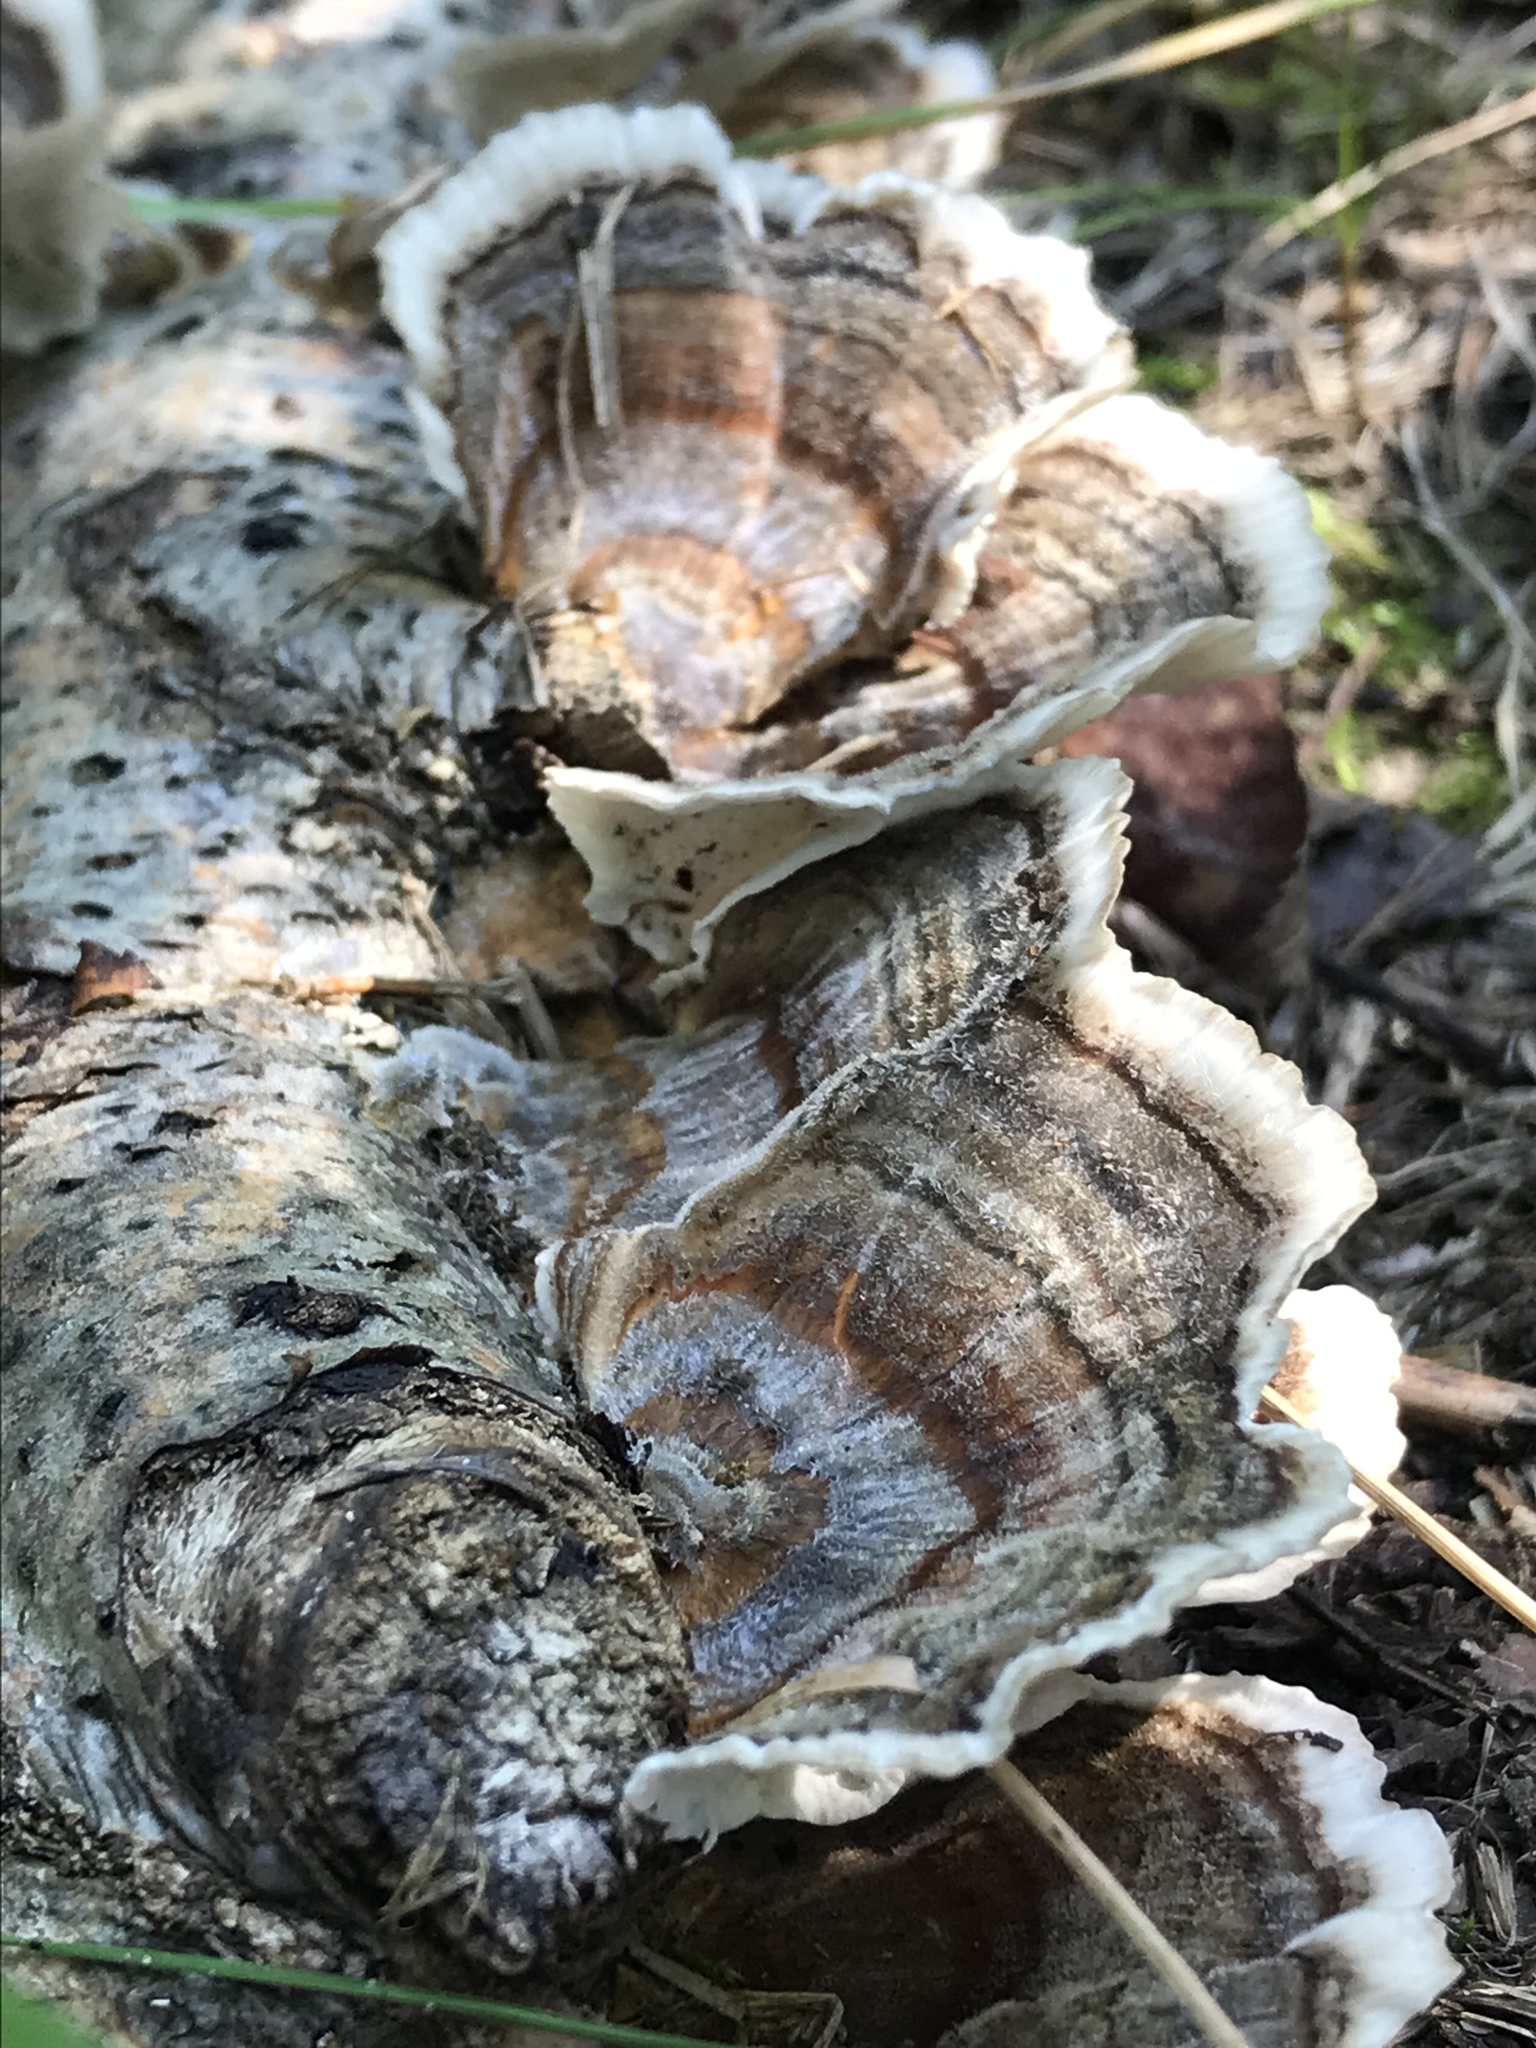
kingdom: Fungi
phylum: Basidiomycota
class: Agaricomycetes
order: Polyporales
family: Polyporaceae
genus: Trametes
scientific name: Trametes versicolor
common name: Turkeytail
